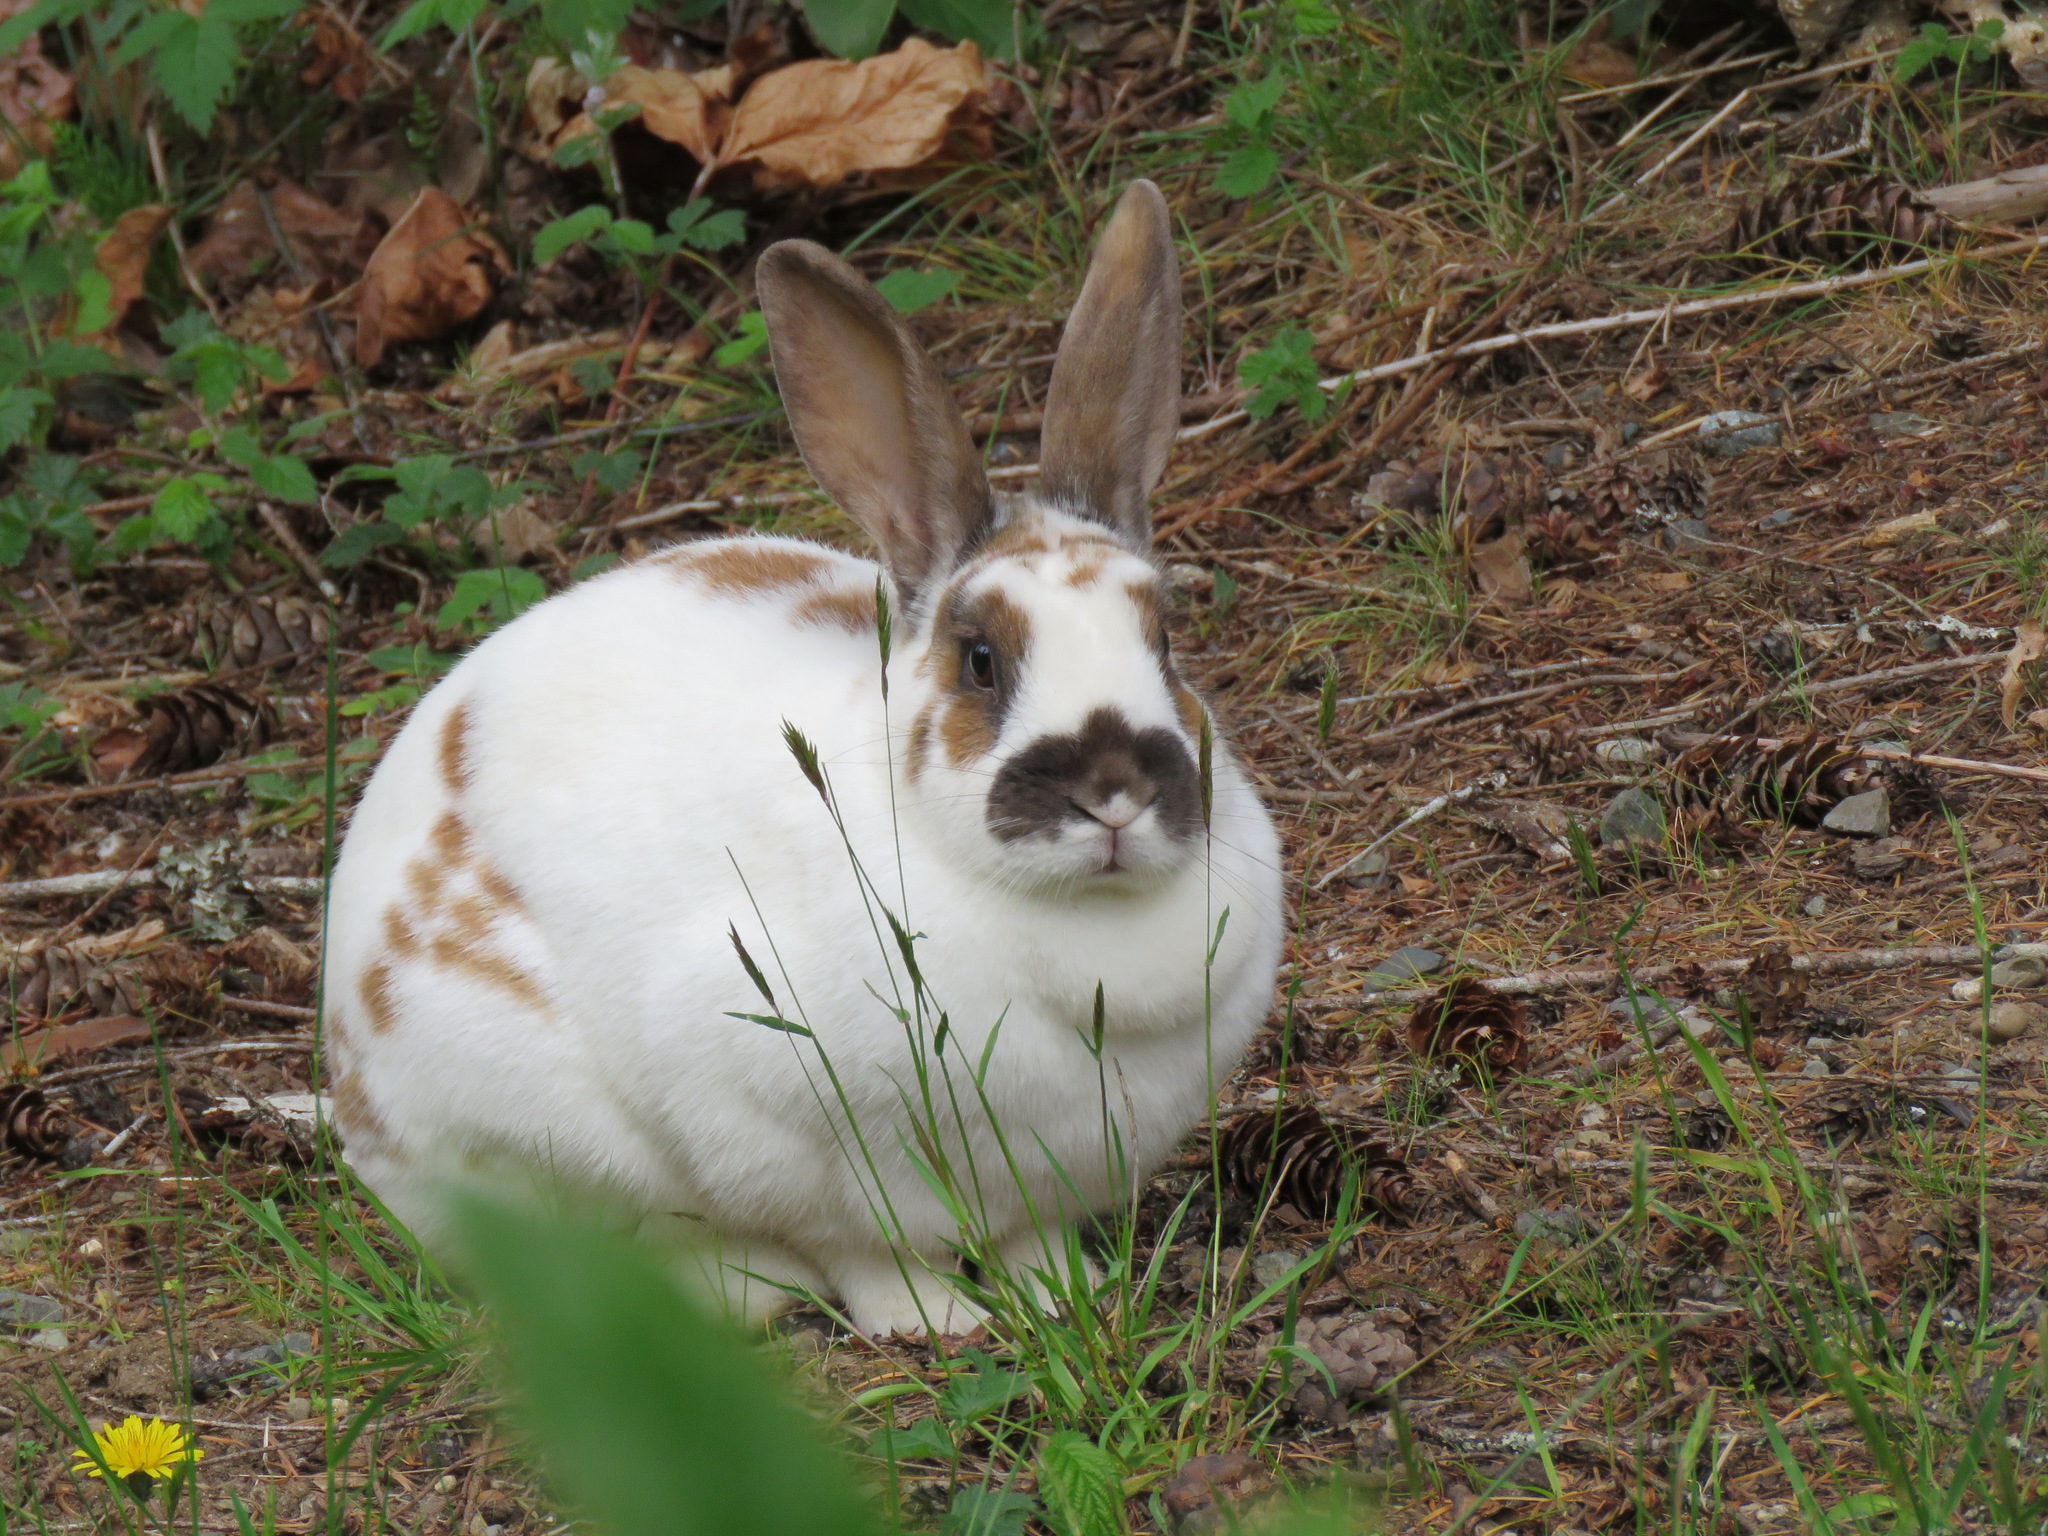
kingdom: Animalia
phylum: Chordata
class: Mammalia
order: Lagomorpha
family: Leporidae
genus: Oryctolagus
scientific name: Oryctolagus cuniculus
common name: European rabbit
